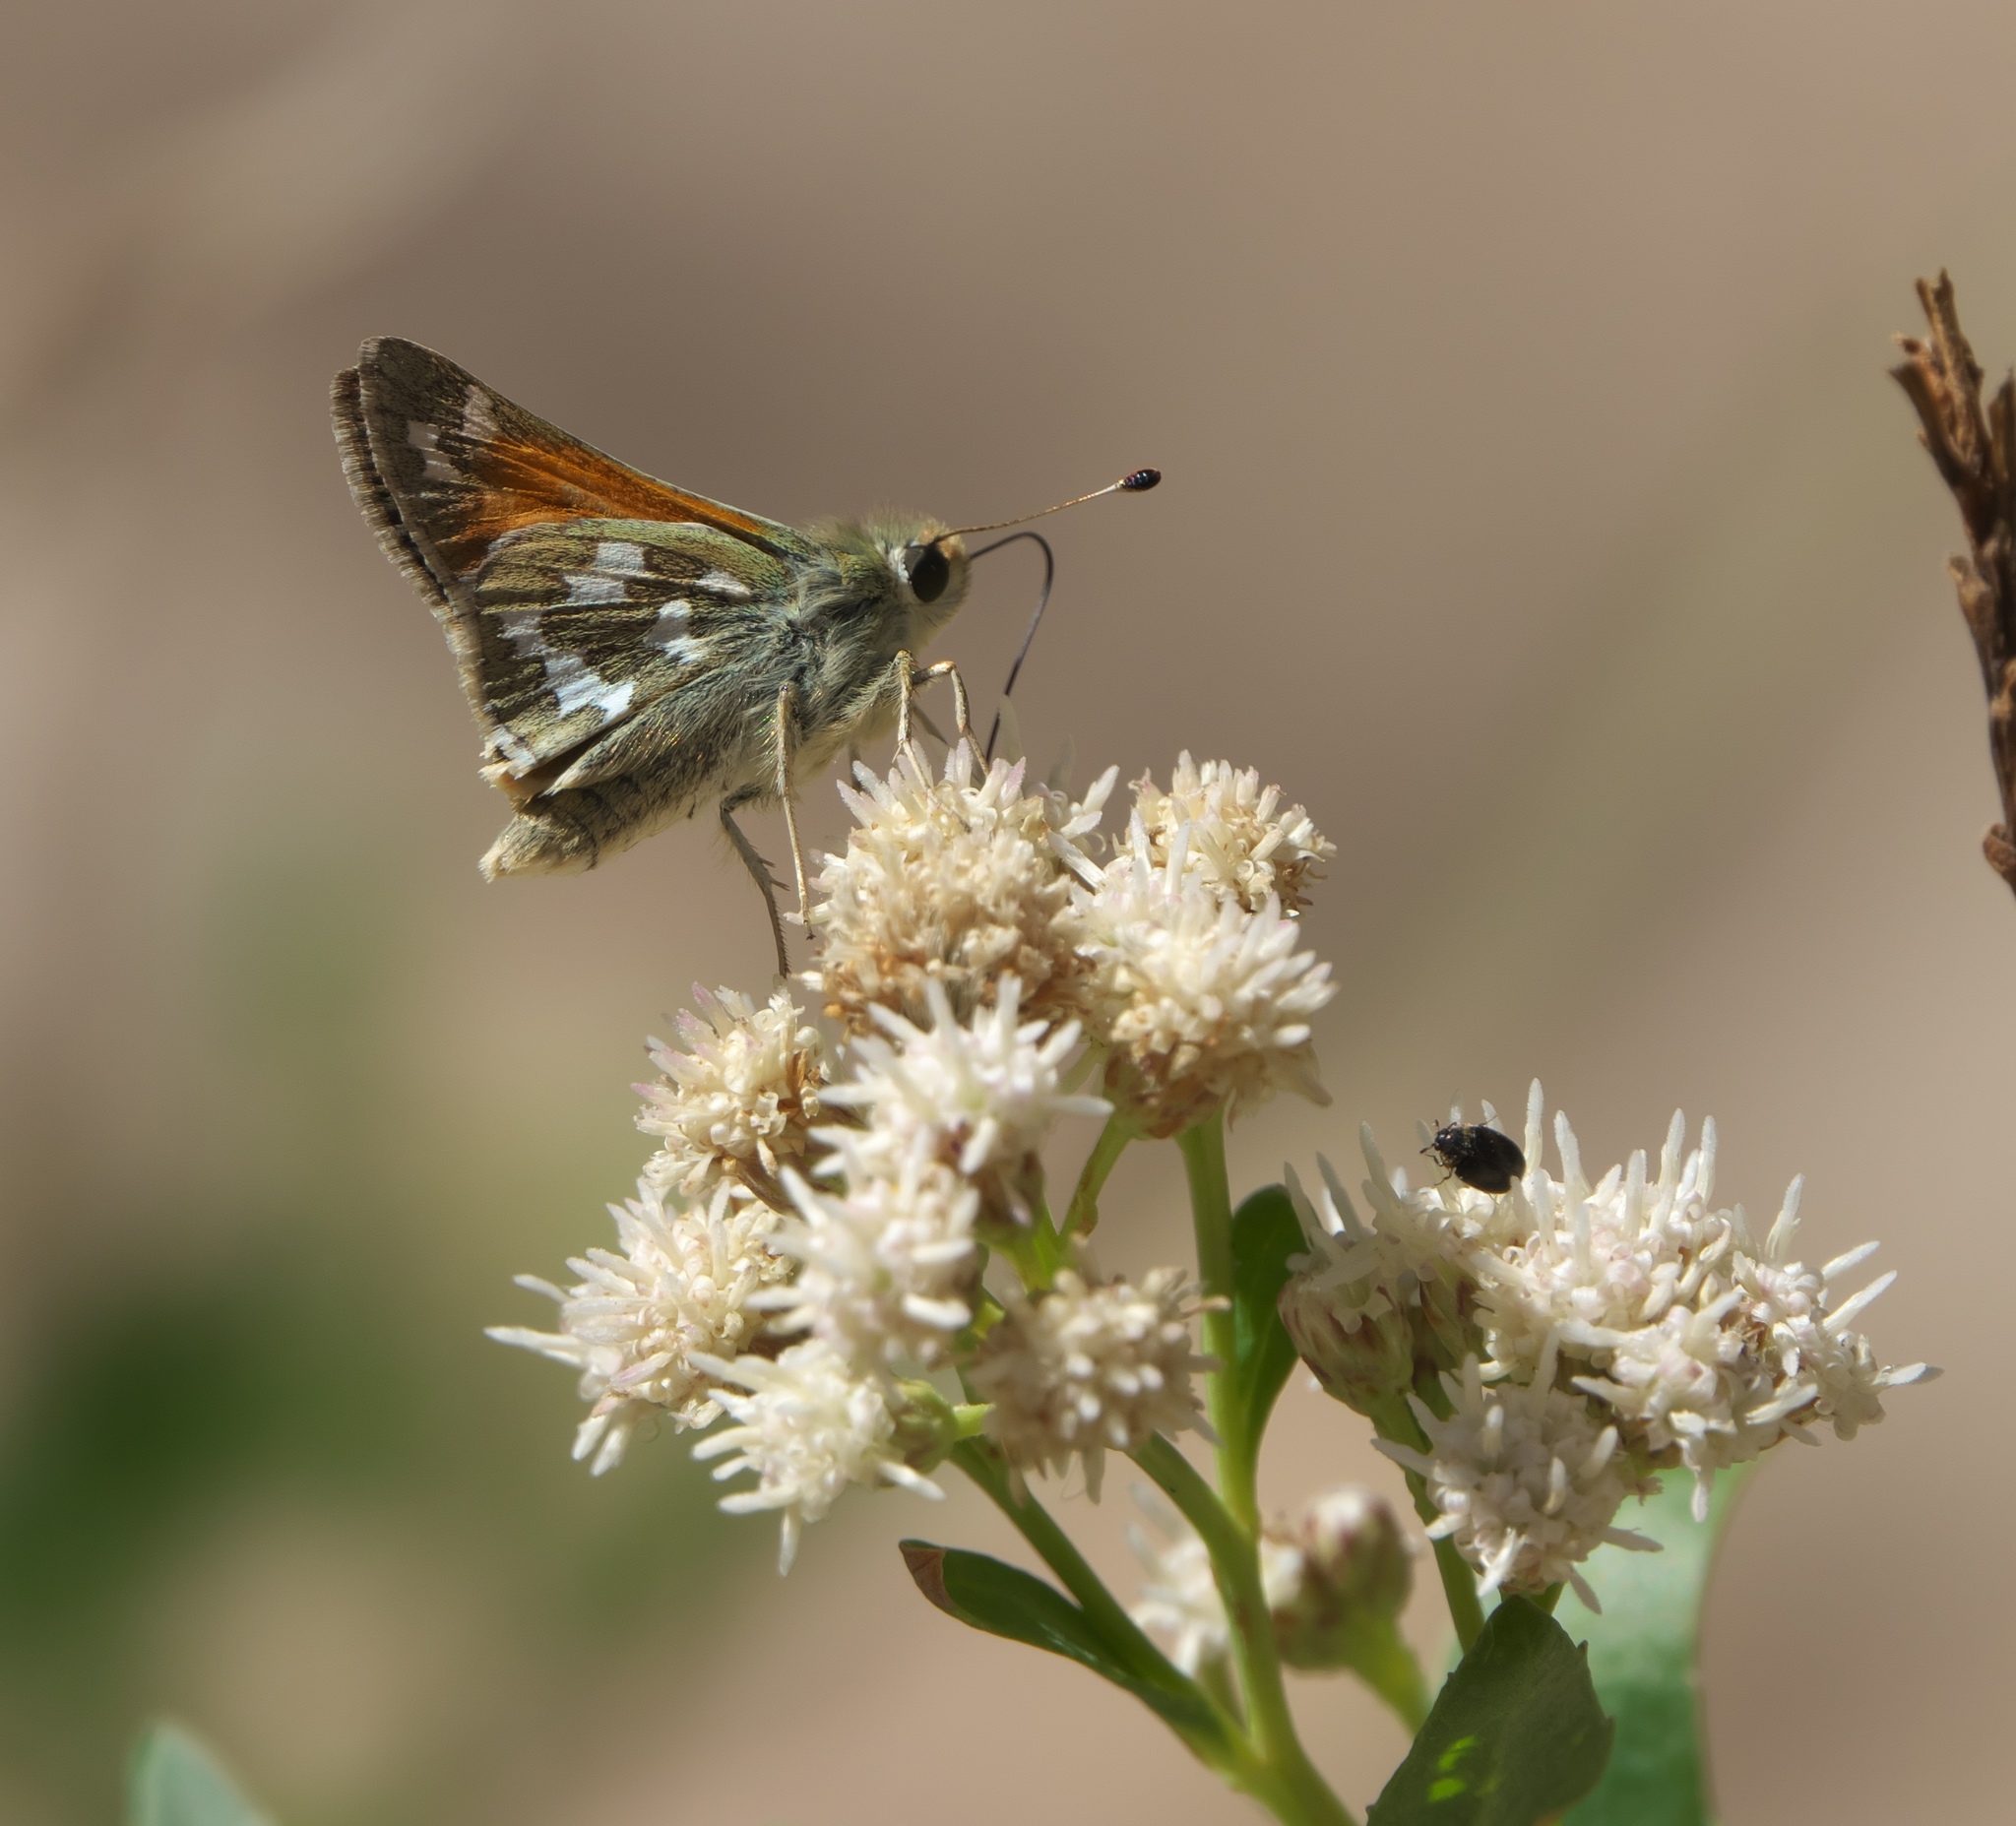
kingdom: Animalia
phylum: Arthropoda
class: Insecta
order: Lepidoptera
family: Hesperiidae
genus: Hesperia
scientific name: Hesperia juba
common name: Juba skipper
